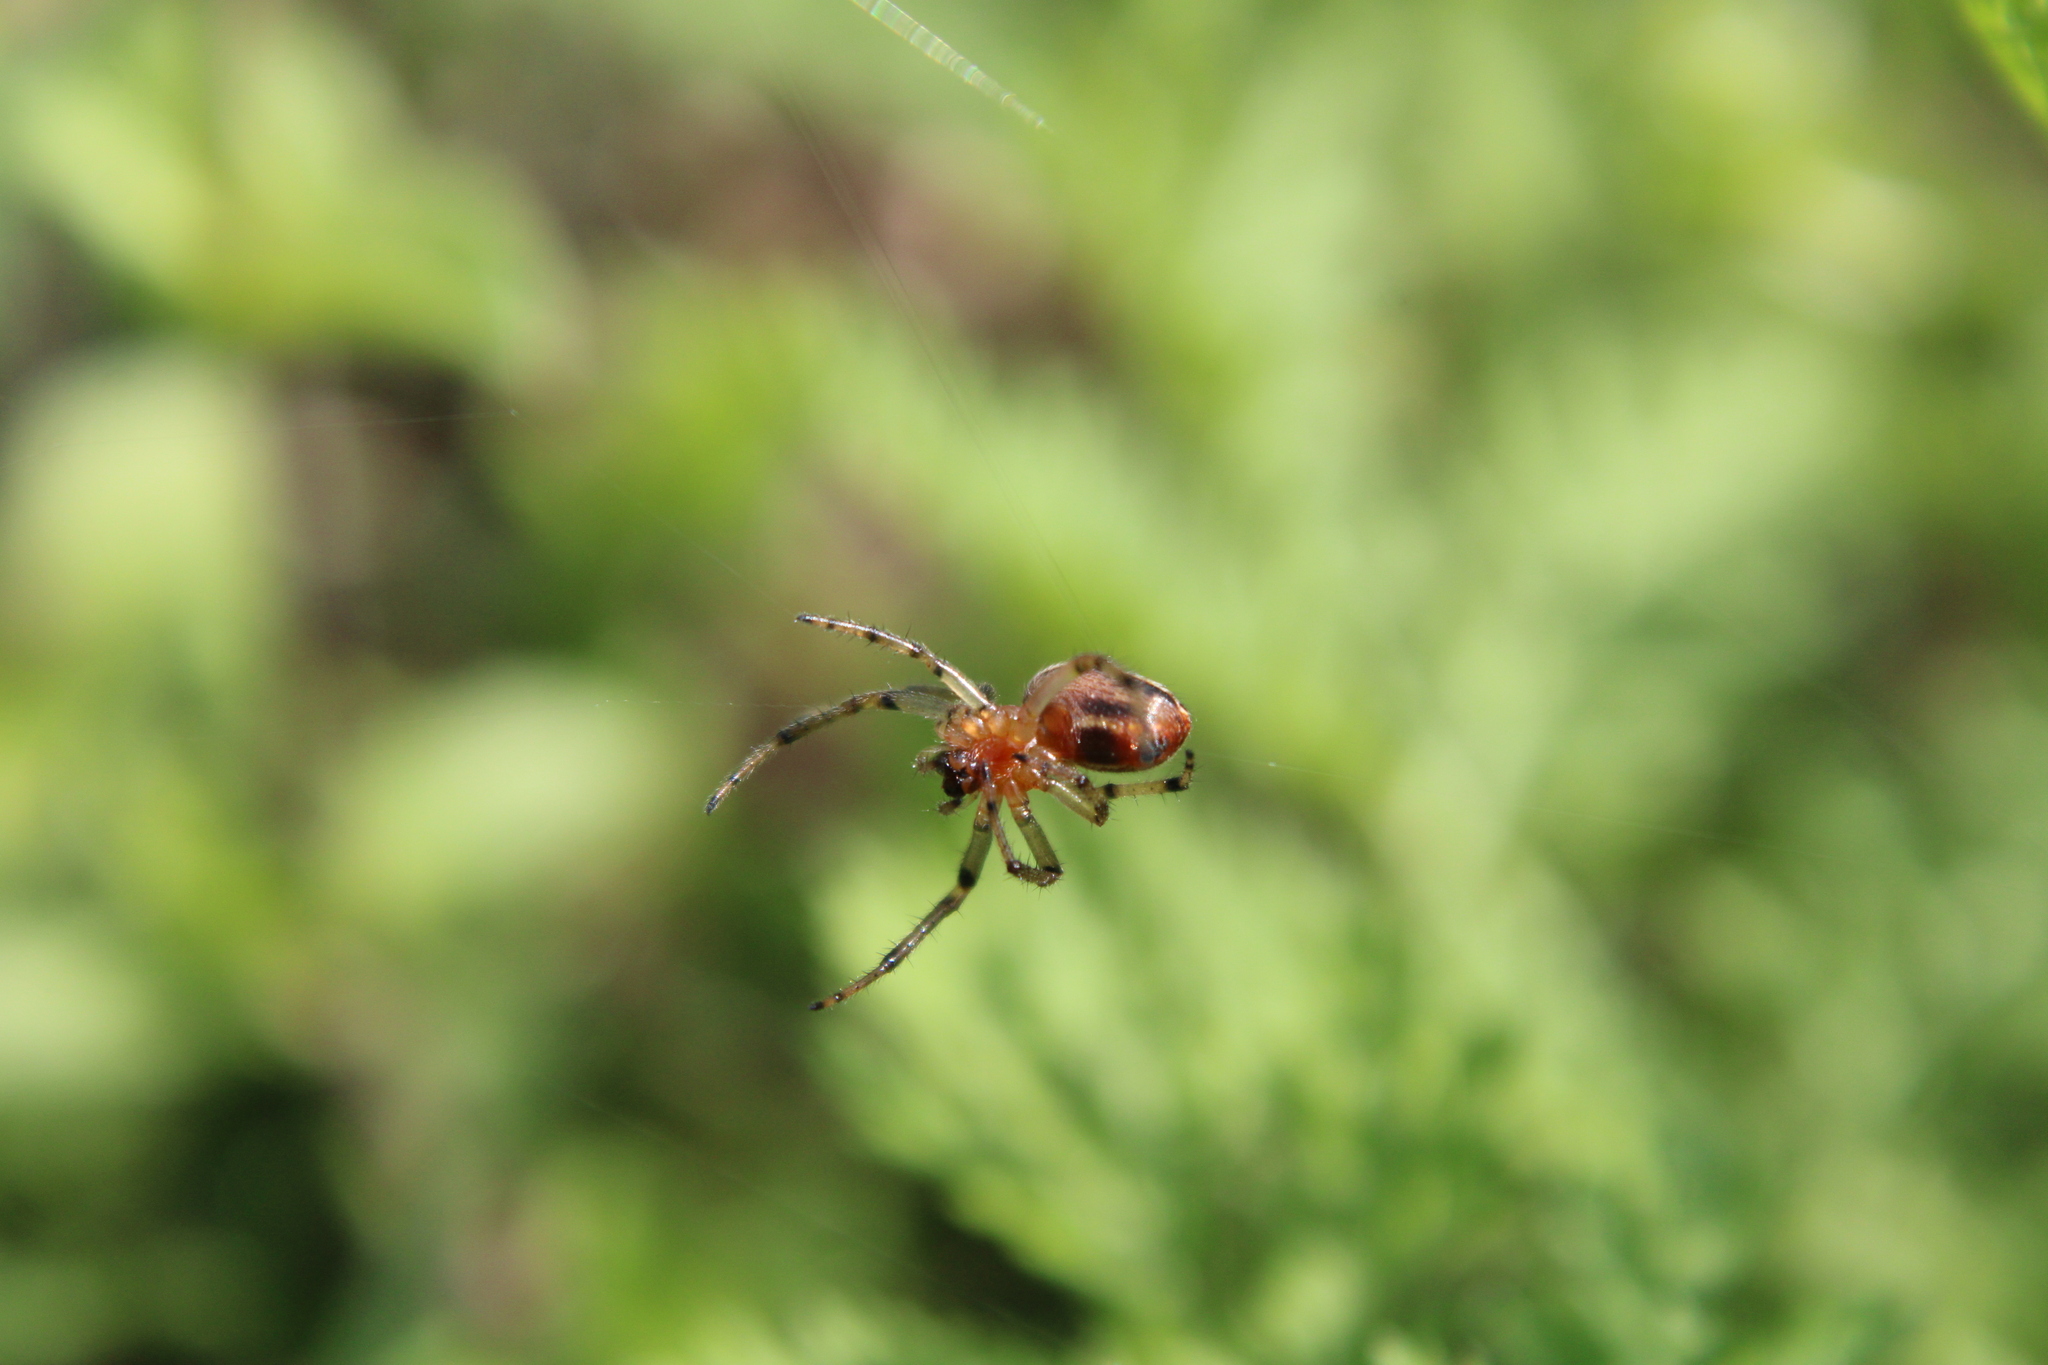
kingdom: Animalia
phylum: Arthropoda
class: Arachnida
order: Araneae
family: Araneidae
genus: Alpaida
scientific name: Alpaida veniliae
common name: Orb weavers
